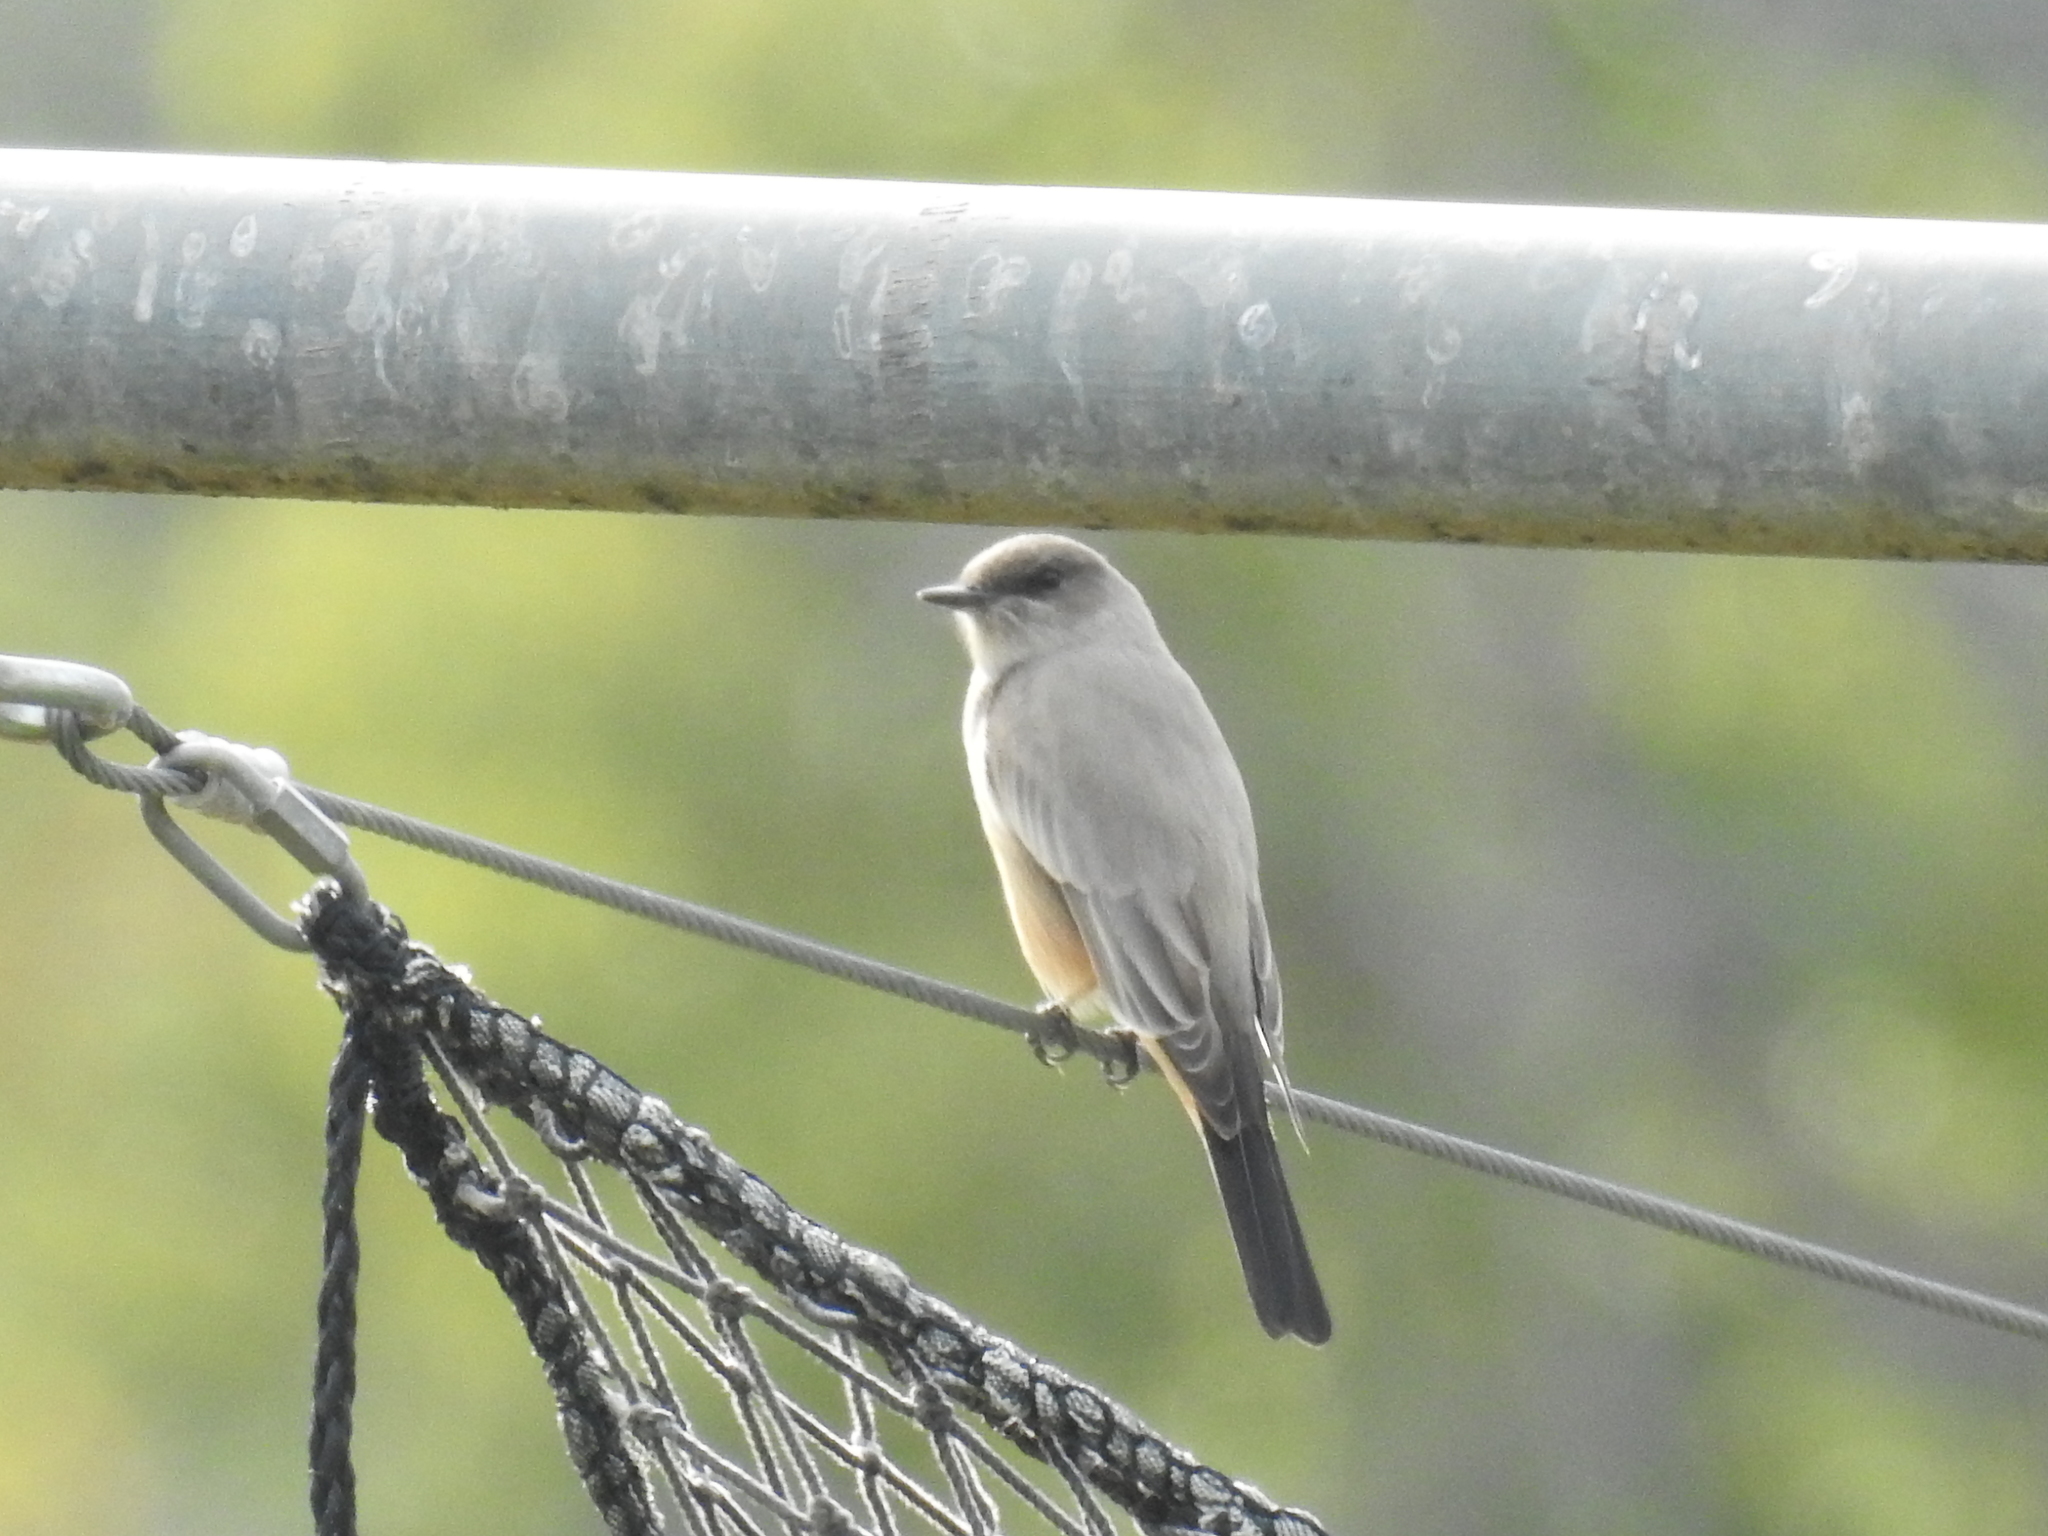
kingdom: Animalia
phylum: Chordata
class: Aves
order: Passeriformes
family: Tyrannidae
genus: Sayornis
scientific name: Sayornis saya
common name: Say's phoebe
